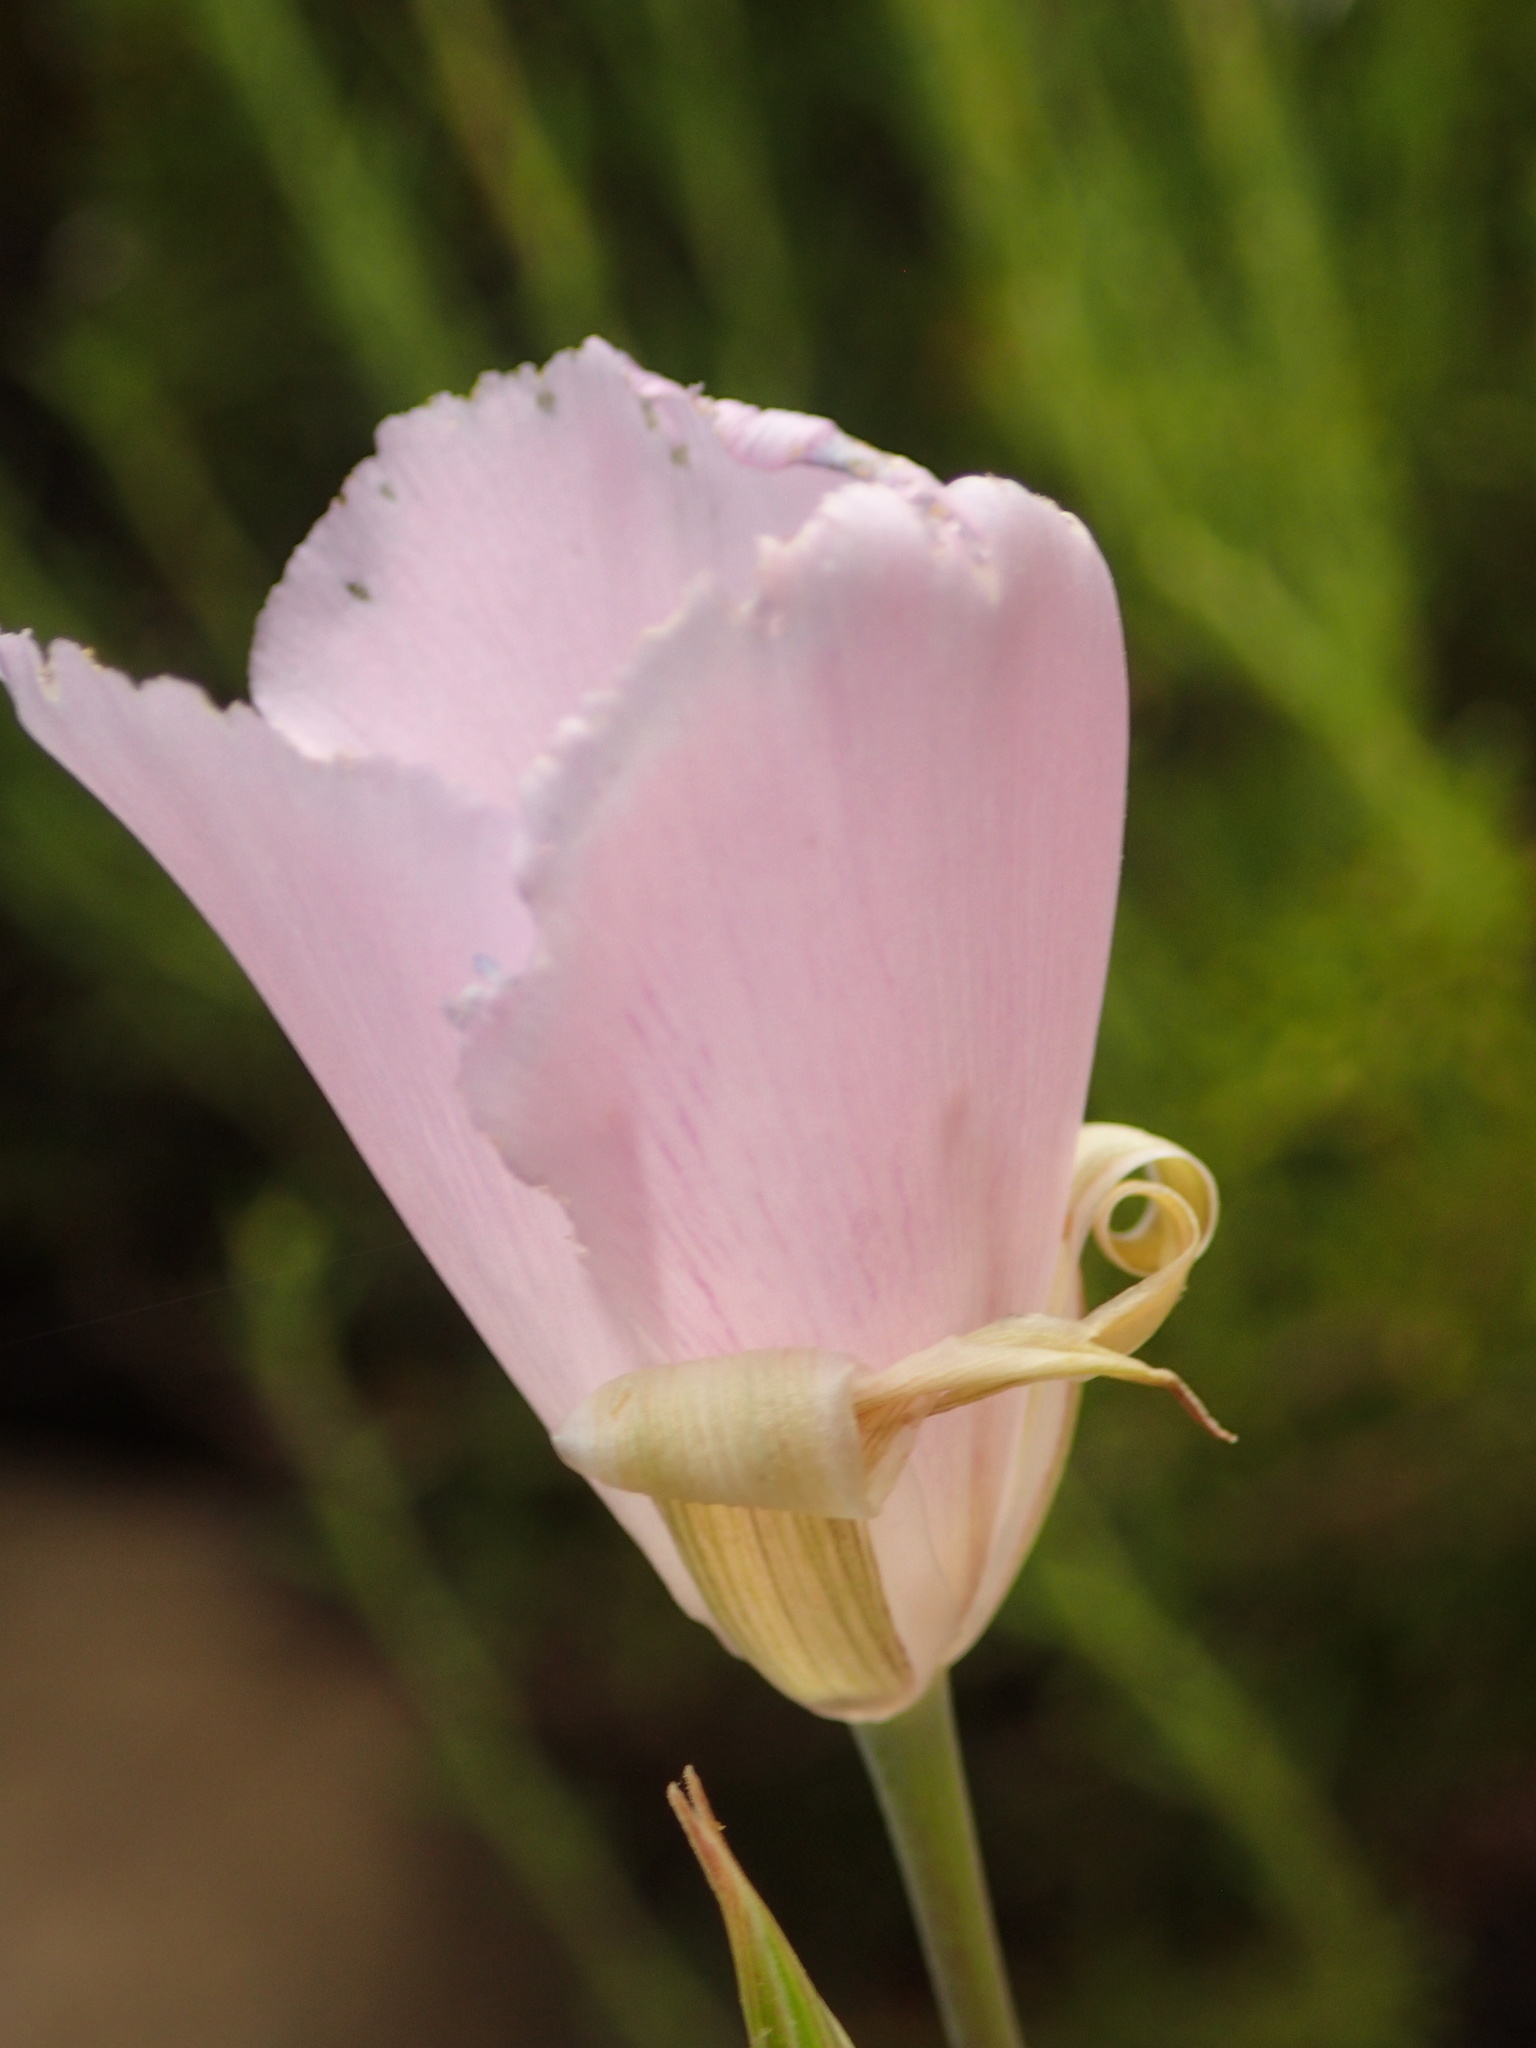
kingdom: Plantae
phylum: Tracheophyta
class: Liliopsida
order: Liliales
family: Liliaceae
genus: Calochortus
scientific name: Calochortus splendens
